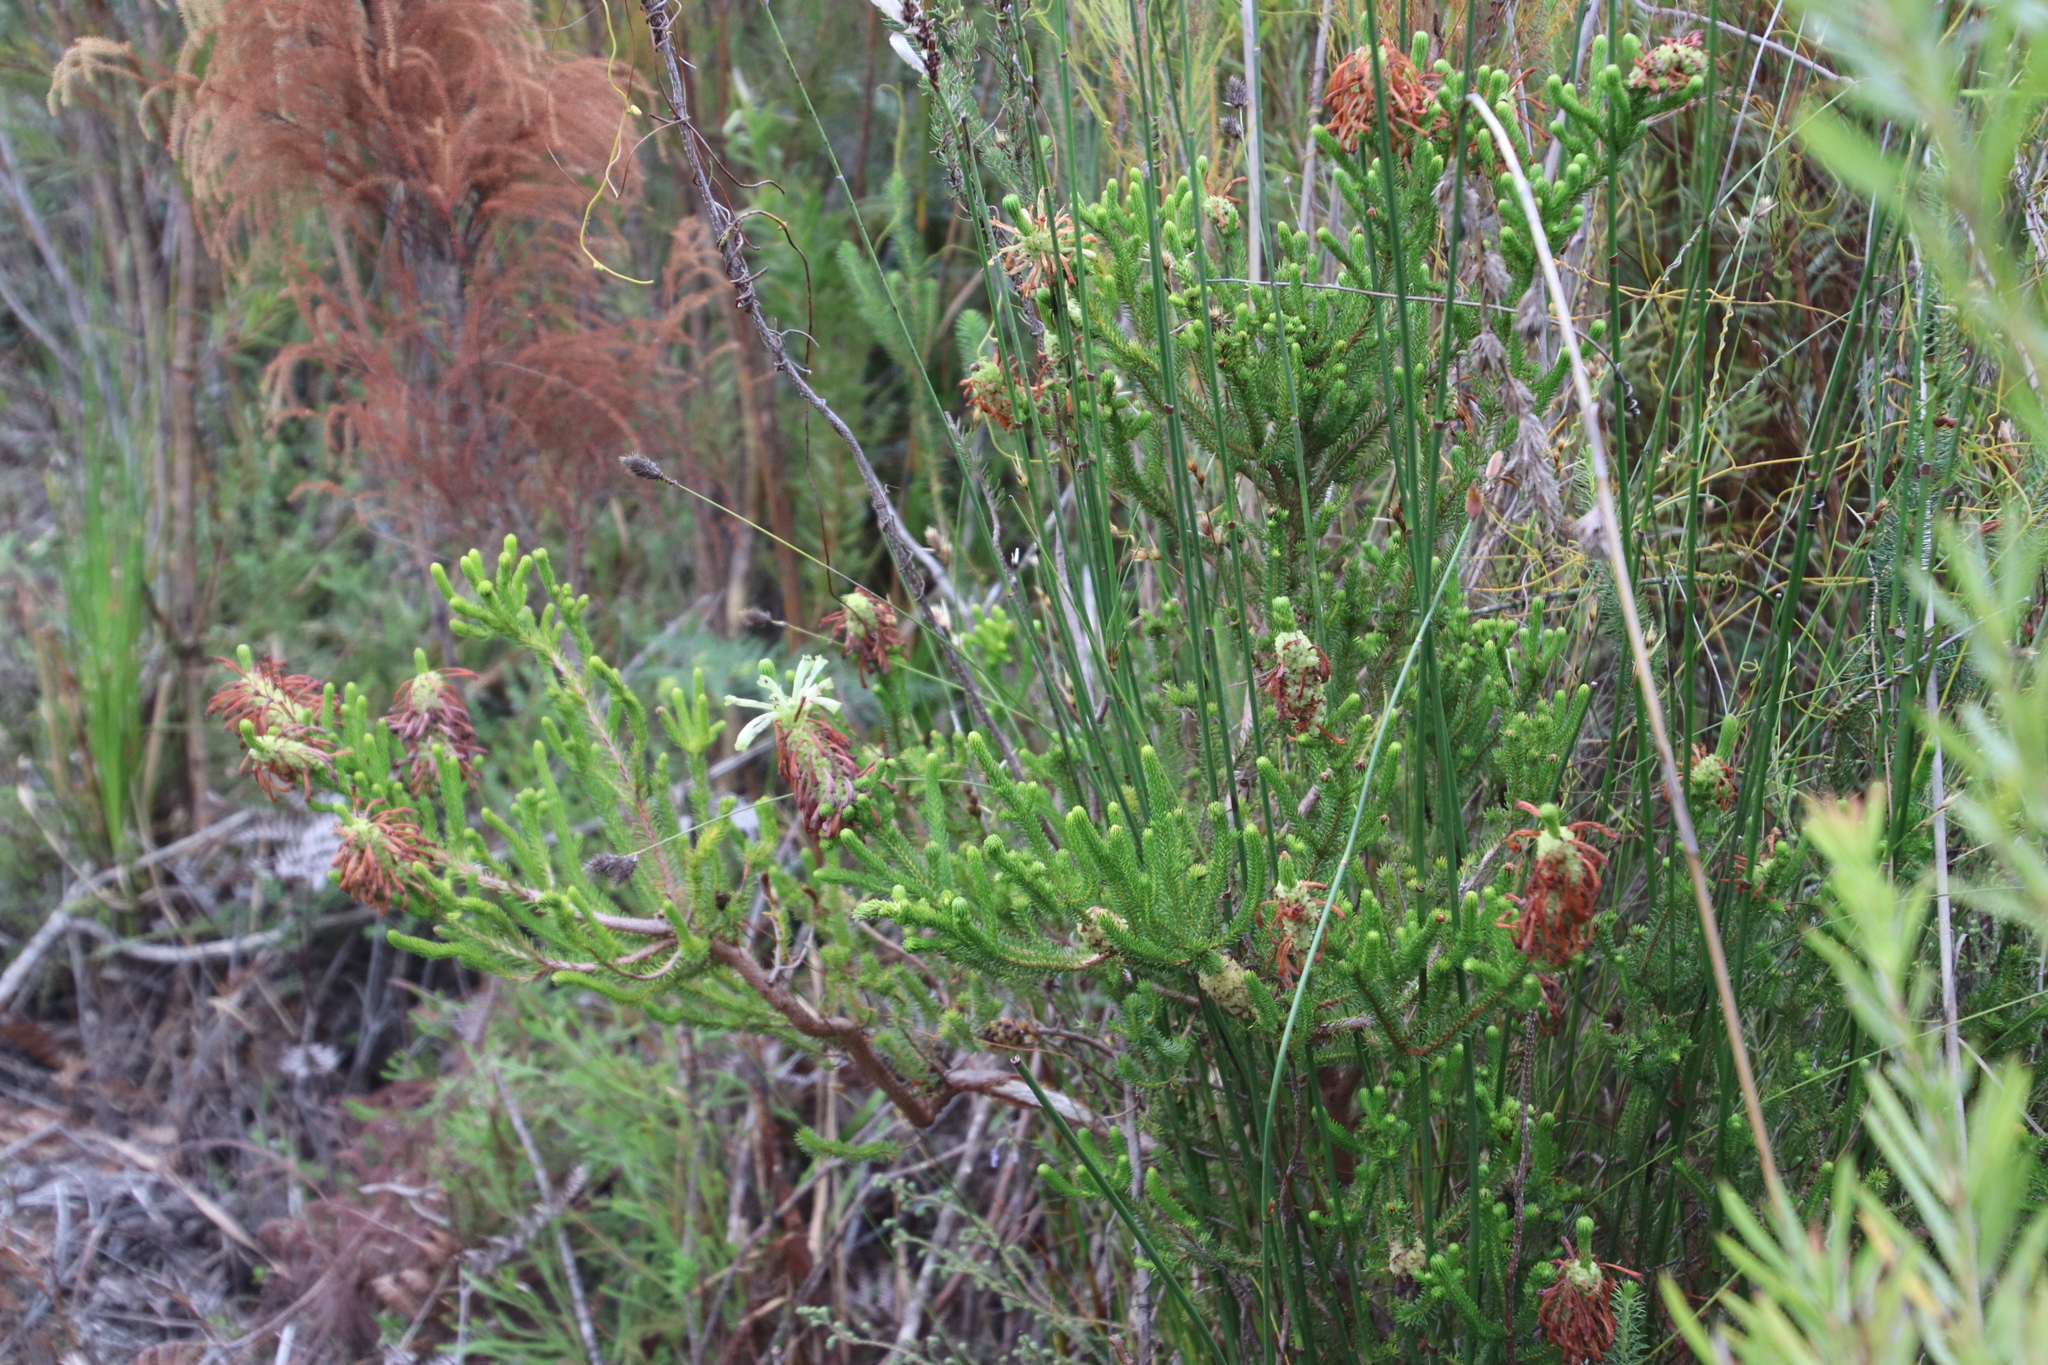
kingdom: Plantae
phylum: Tracheophyta
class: Magnoliopsida
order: Ericales
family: Ericaceae
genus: Erica
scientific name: Erica sessiliflora
